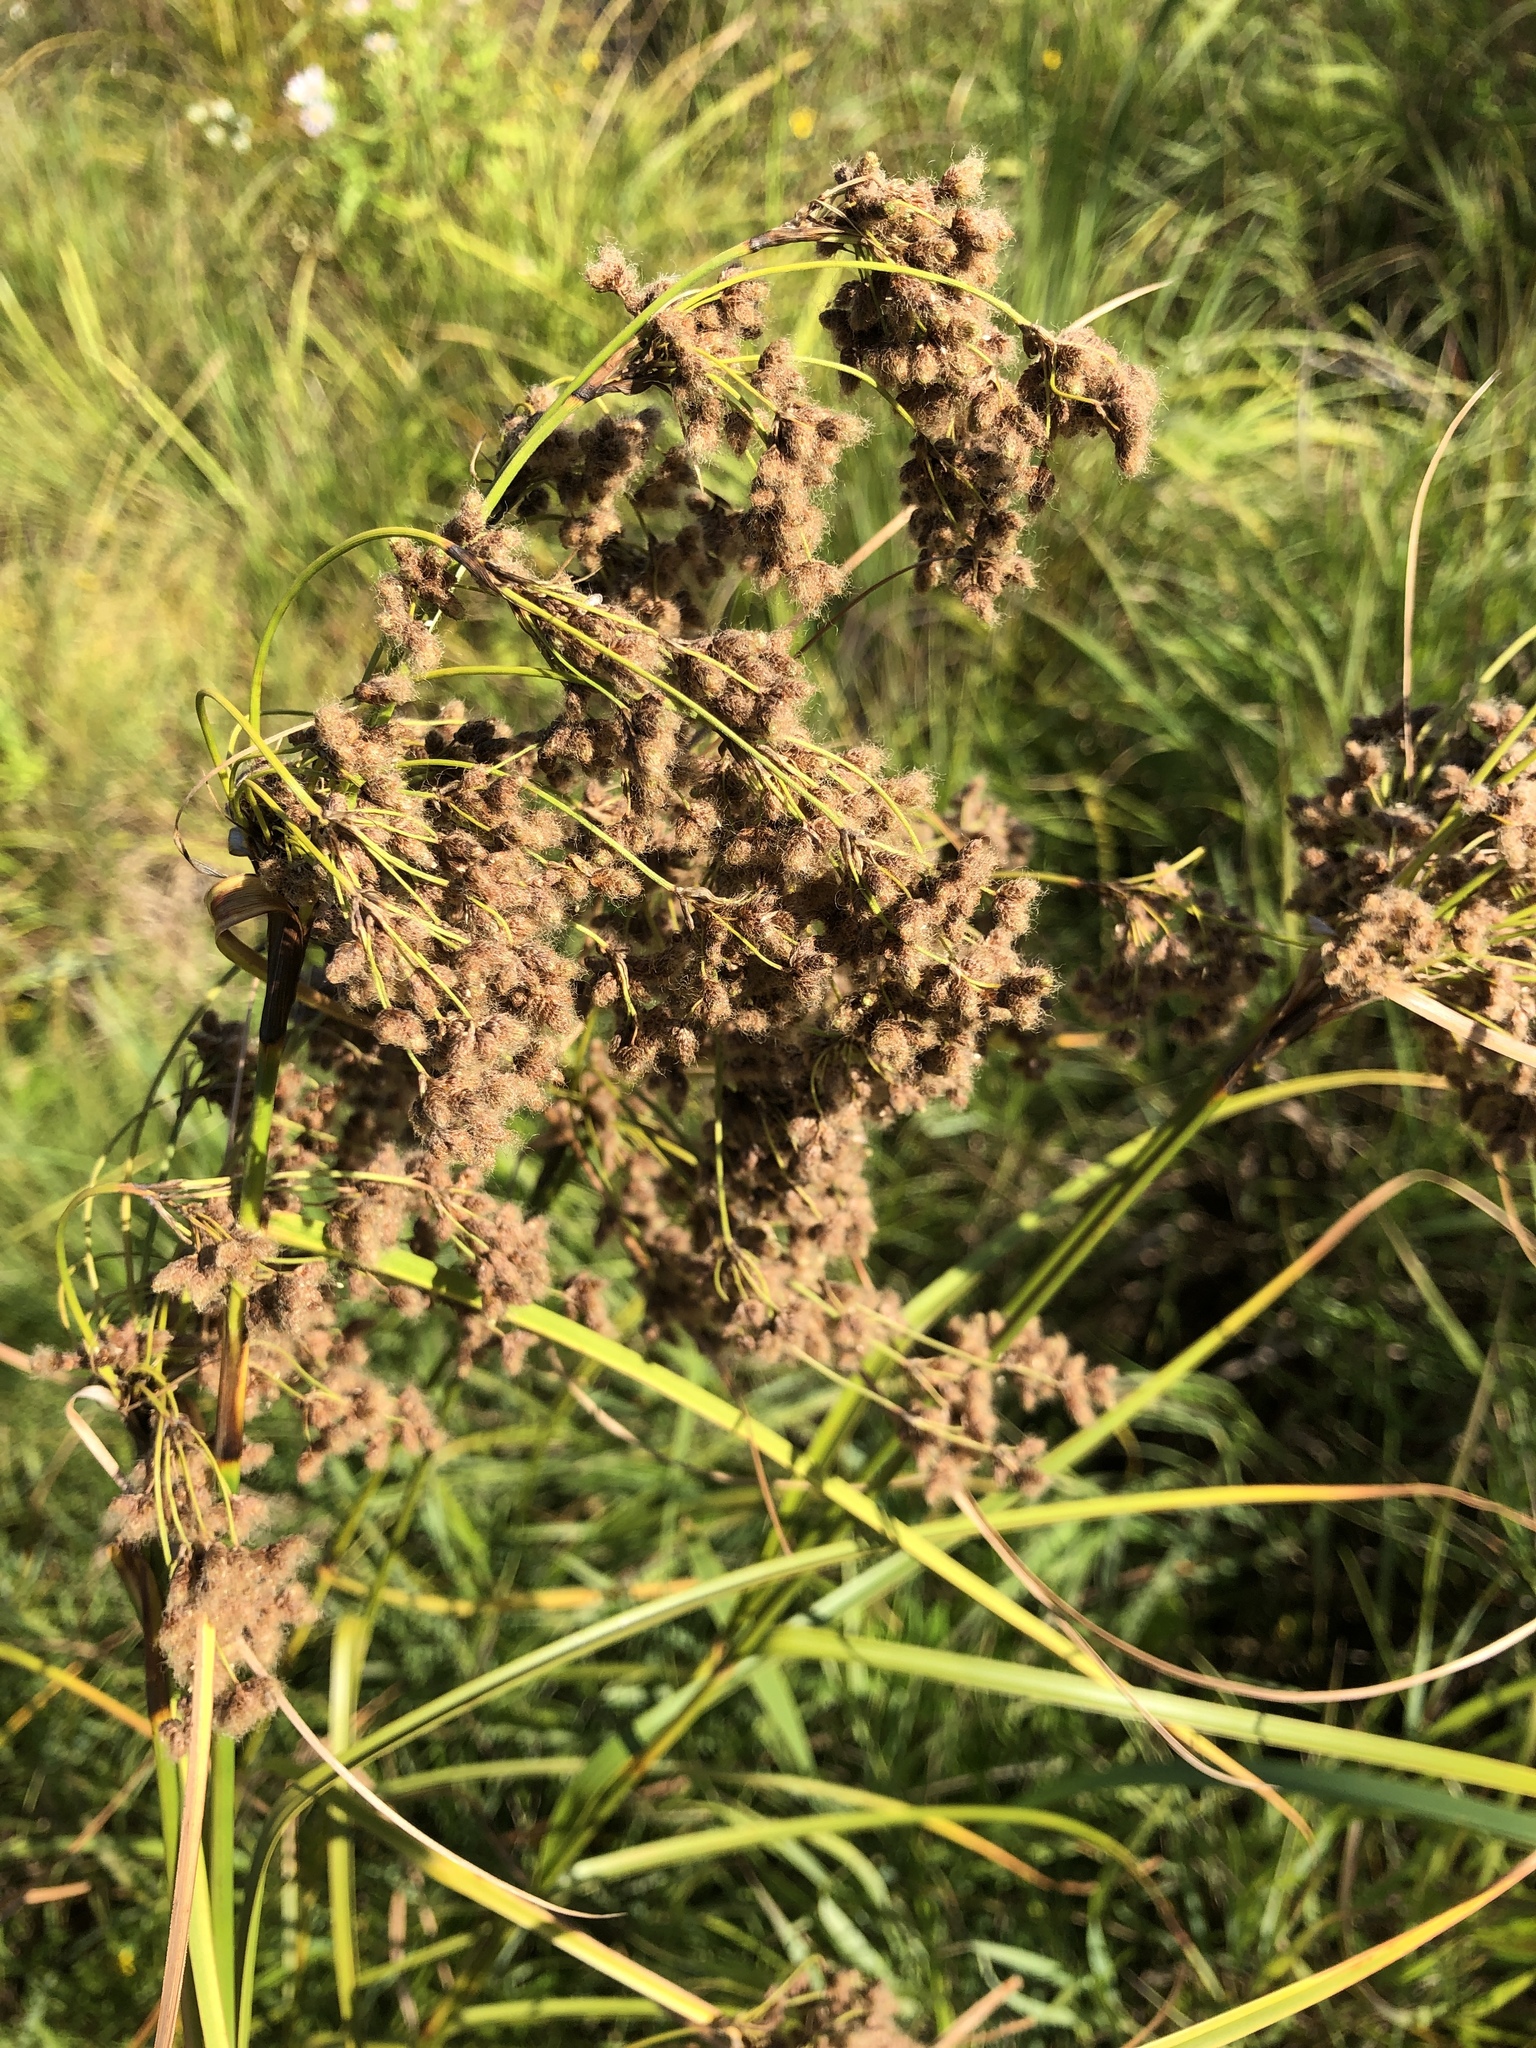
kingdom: Plantae
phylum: Tracheophyta
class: Liliopsida
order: Poales
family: Cyperaceae
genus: Scirpus
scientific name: Scirpus cyperinus
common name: Black-sheathed bulrush
